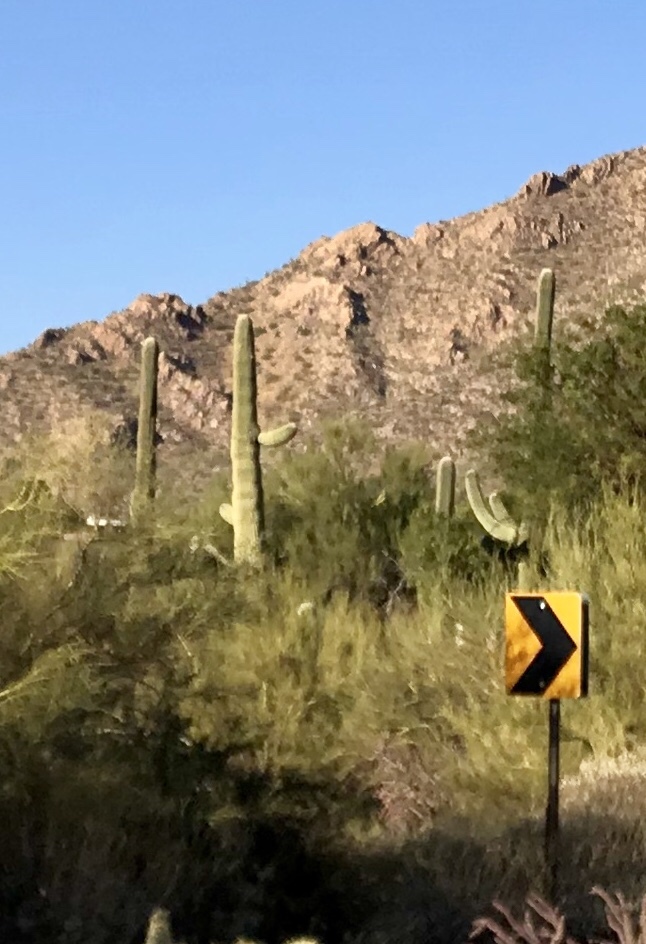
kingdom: Plantae
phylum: Tracheophyta
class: Magnoliopsida
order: Caryophyllales
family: Cactaceae
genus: Carnegiea
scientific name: Carnegiea gigantea
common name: Saguaro
